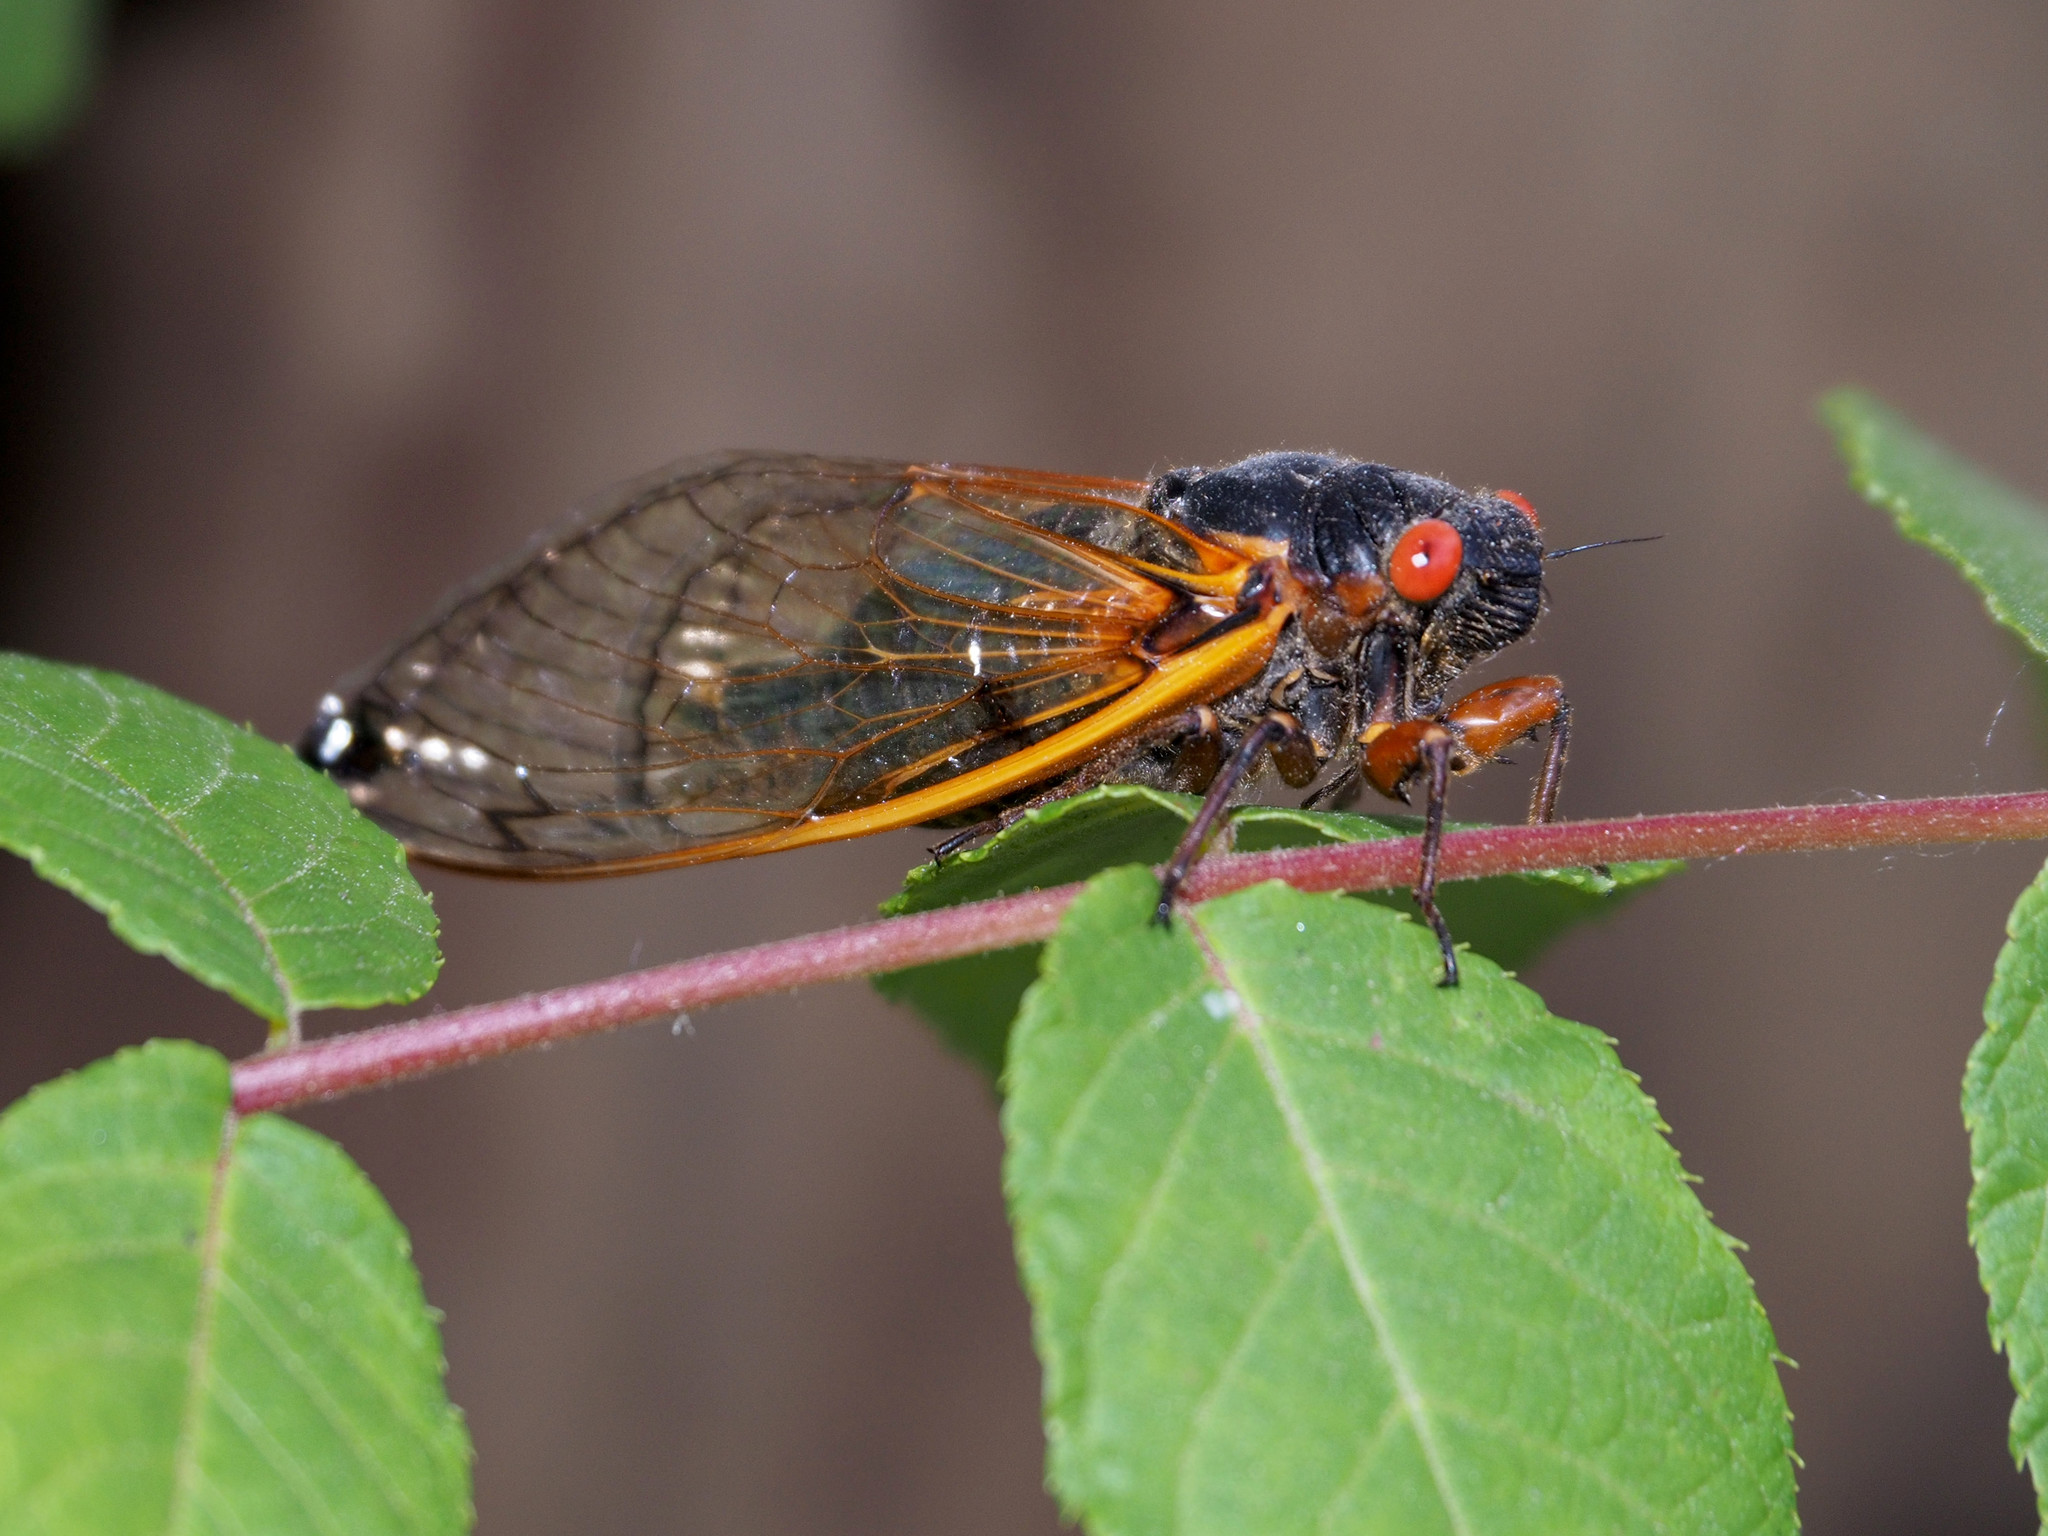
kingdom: Animalia
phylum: Arthropoda
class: Insecta
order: Hemiptera
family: Cicadidae
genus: Magicicada
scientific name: Magicicada septendecim
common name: Periodical cicada
